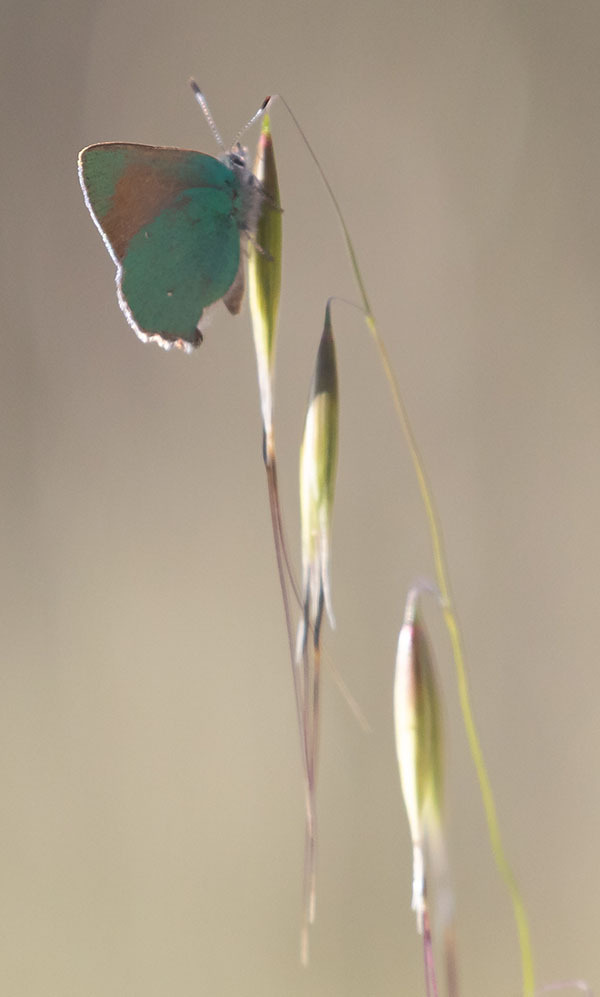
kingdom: Animalia
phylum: Arthropoda
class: Insecta
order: Lepidoptera
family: Lycaenidae
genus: Callophrys
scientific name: Callophrys dumetorum
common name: Bramble hairstreak
